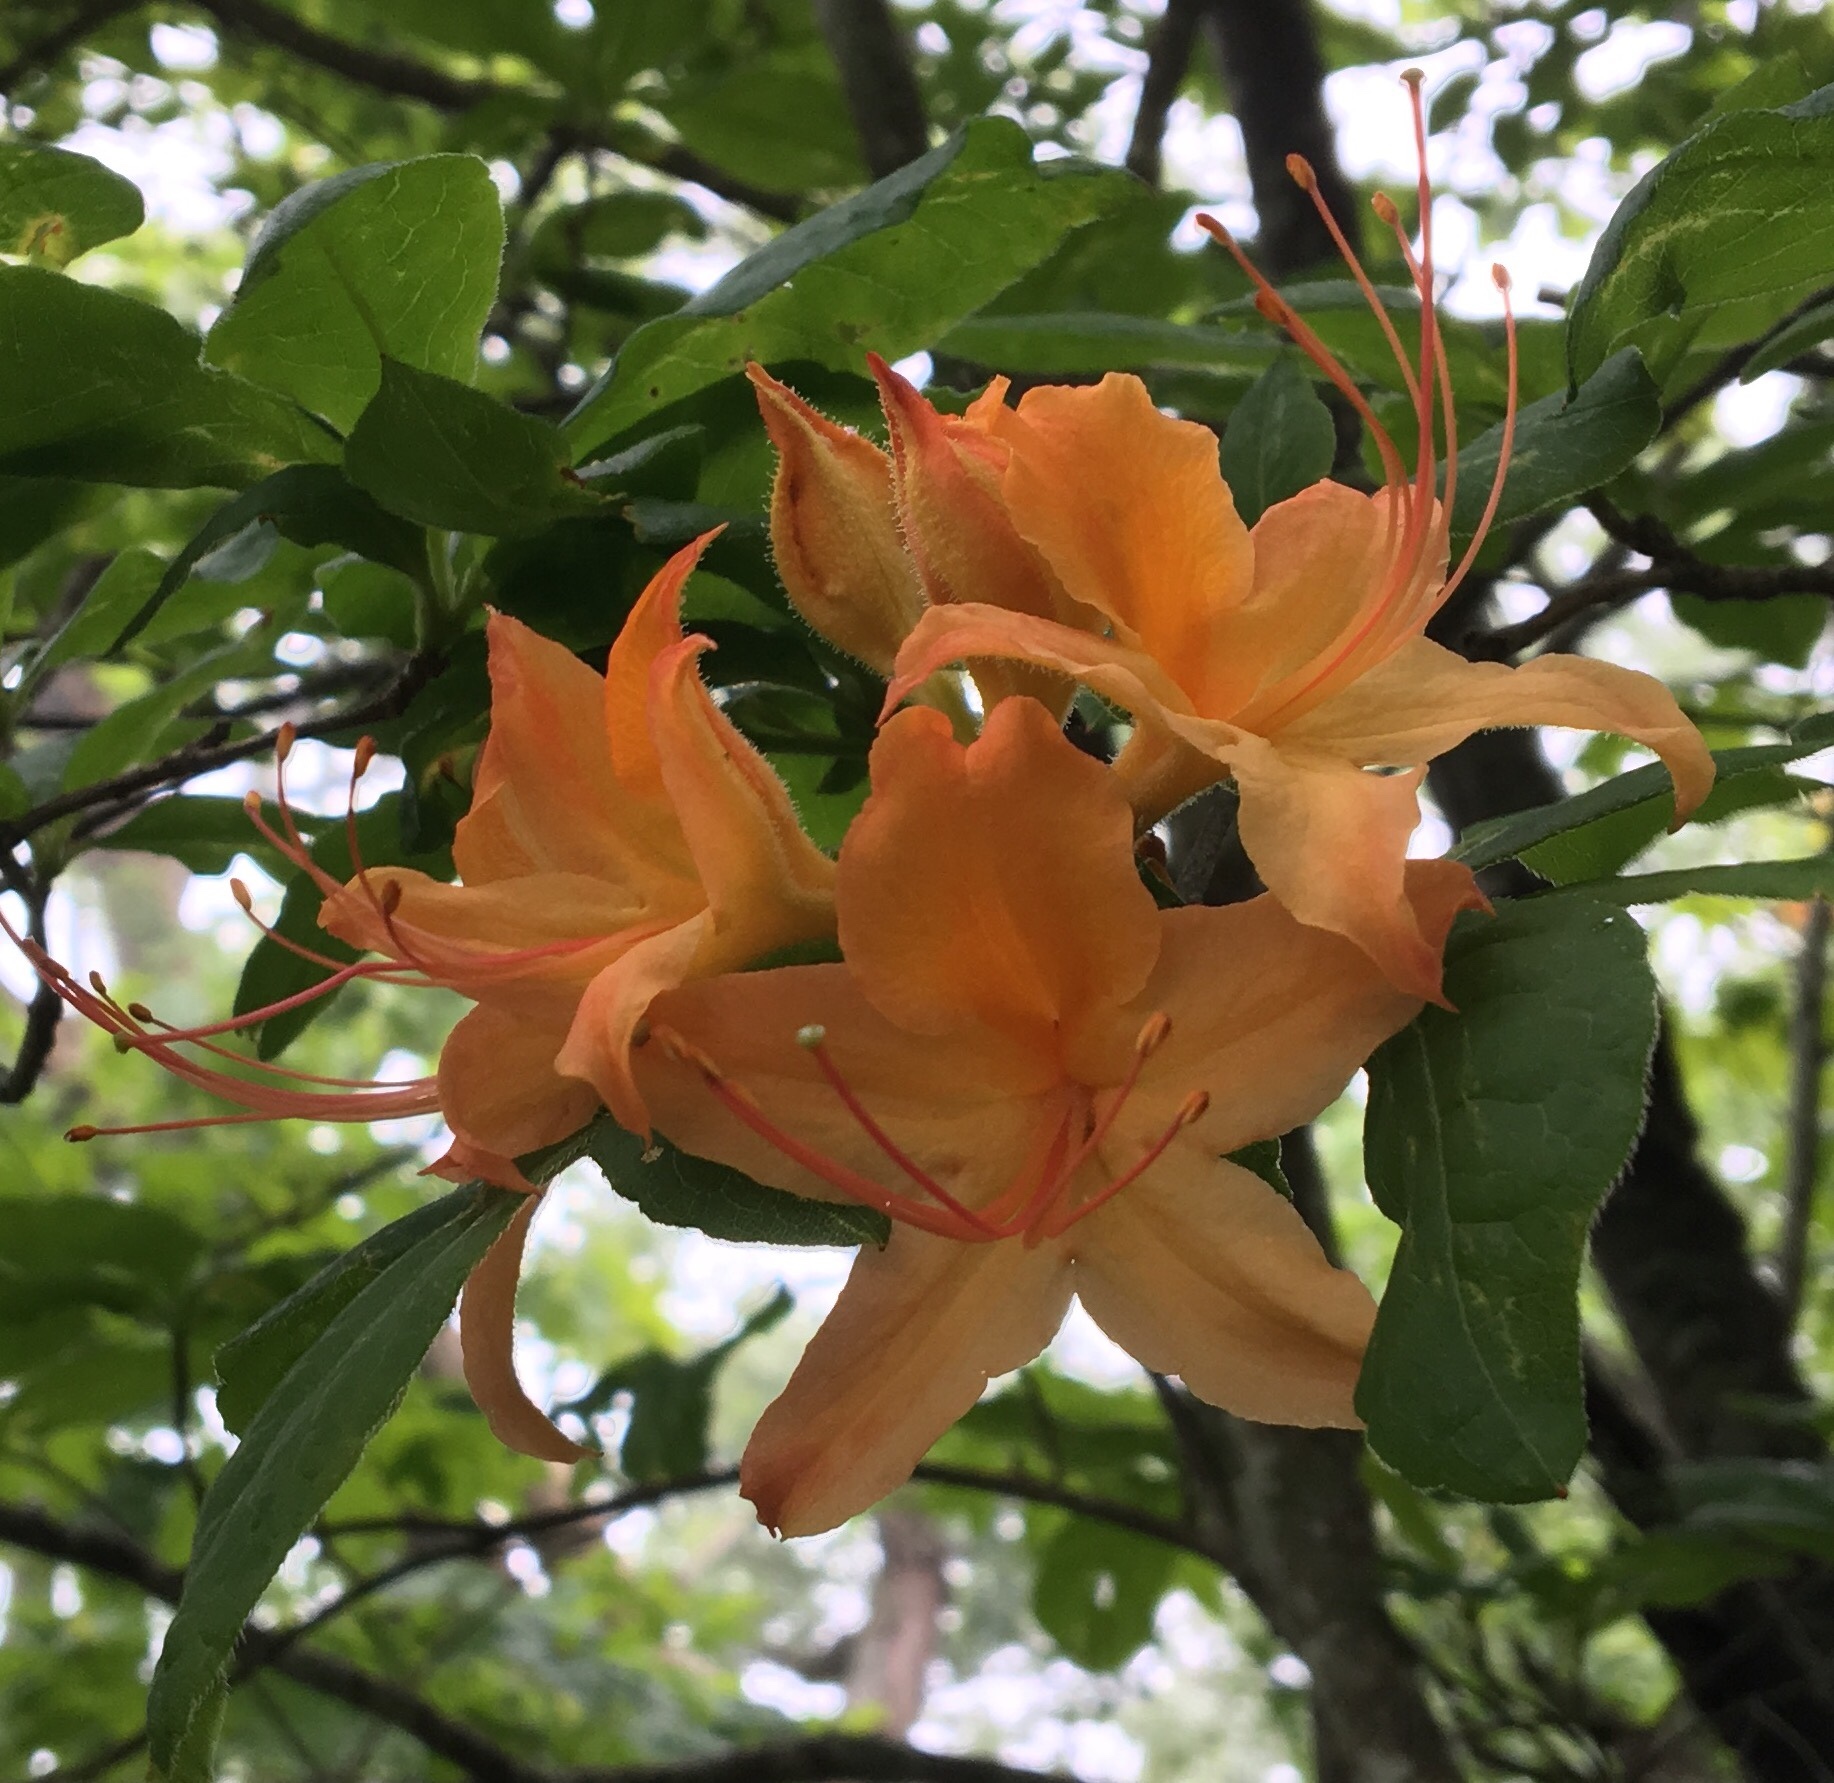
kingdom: Plantae
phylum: Tracheophyta
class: Magnoliopsida
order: Ericales
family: Ericaceae
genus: Rhododendron
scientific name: Rhododendron calendulaceum
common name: Flame azalea
